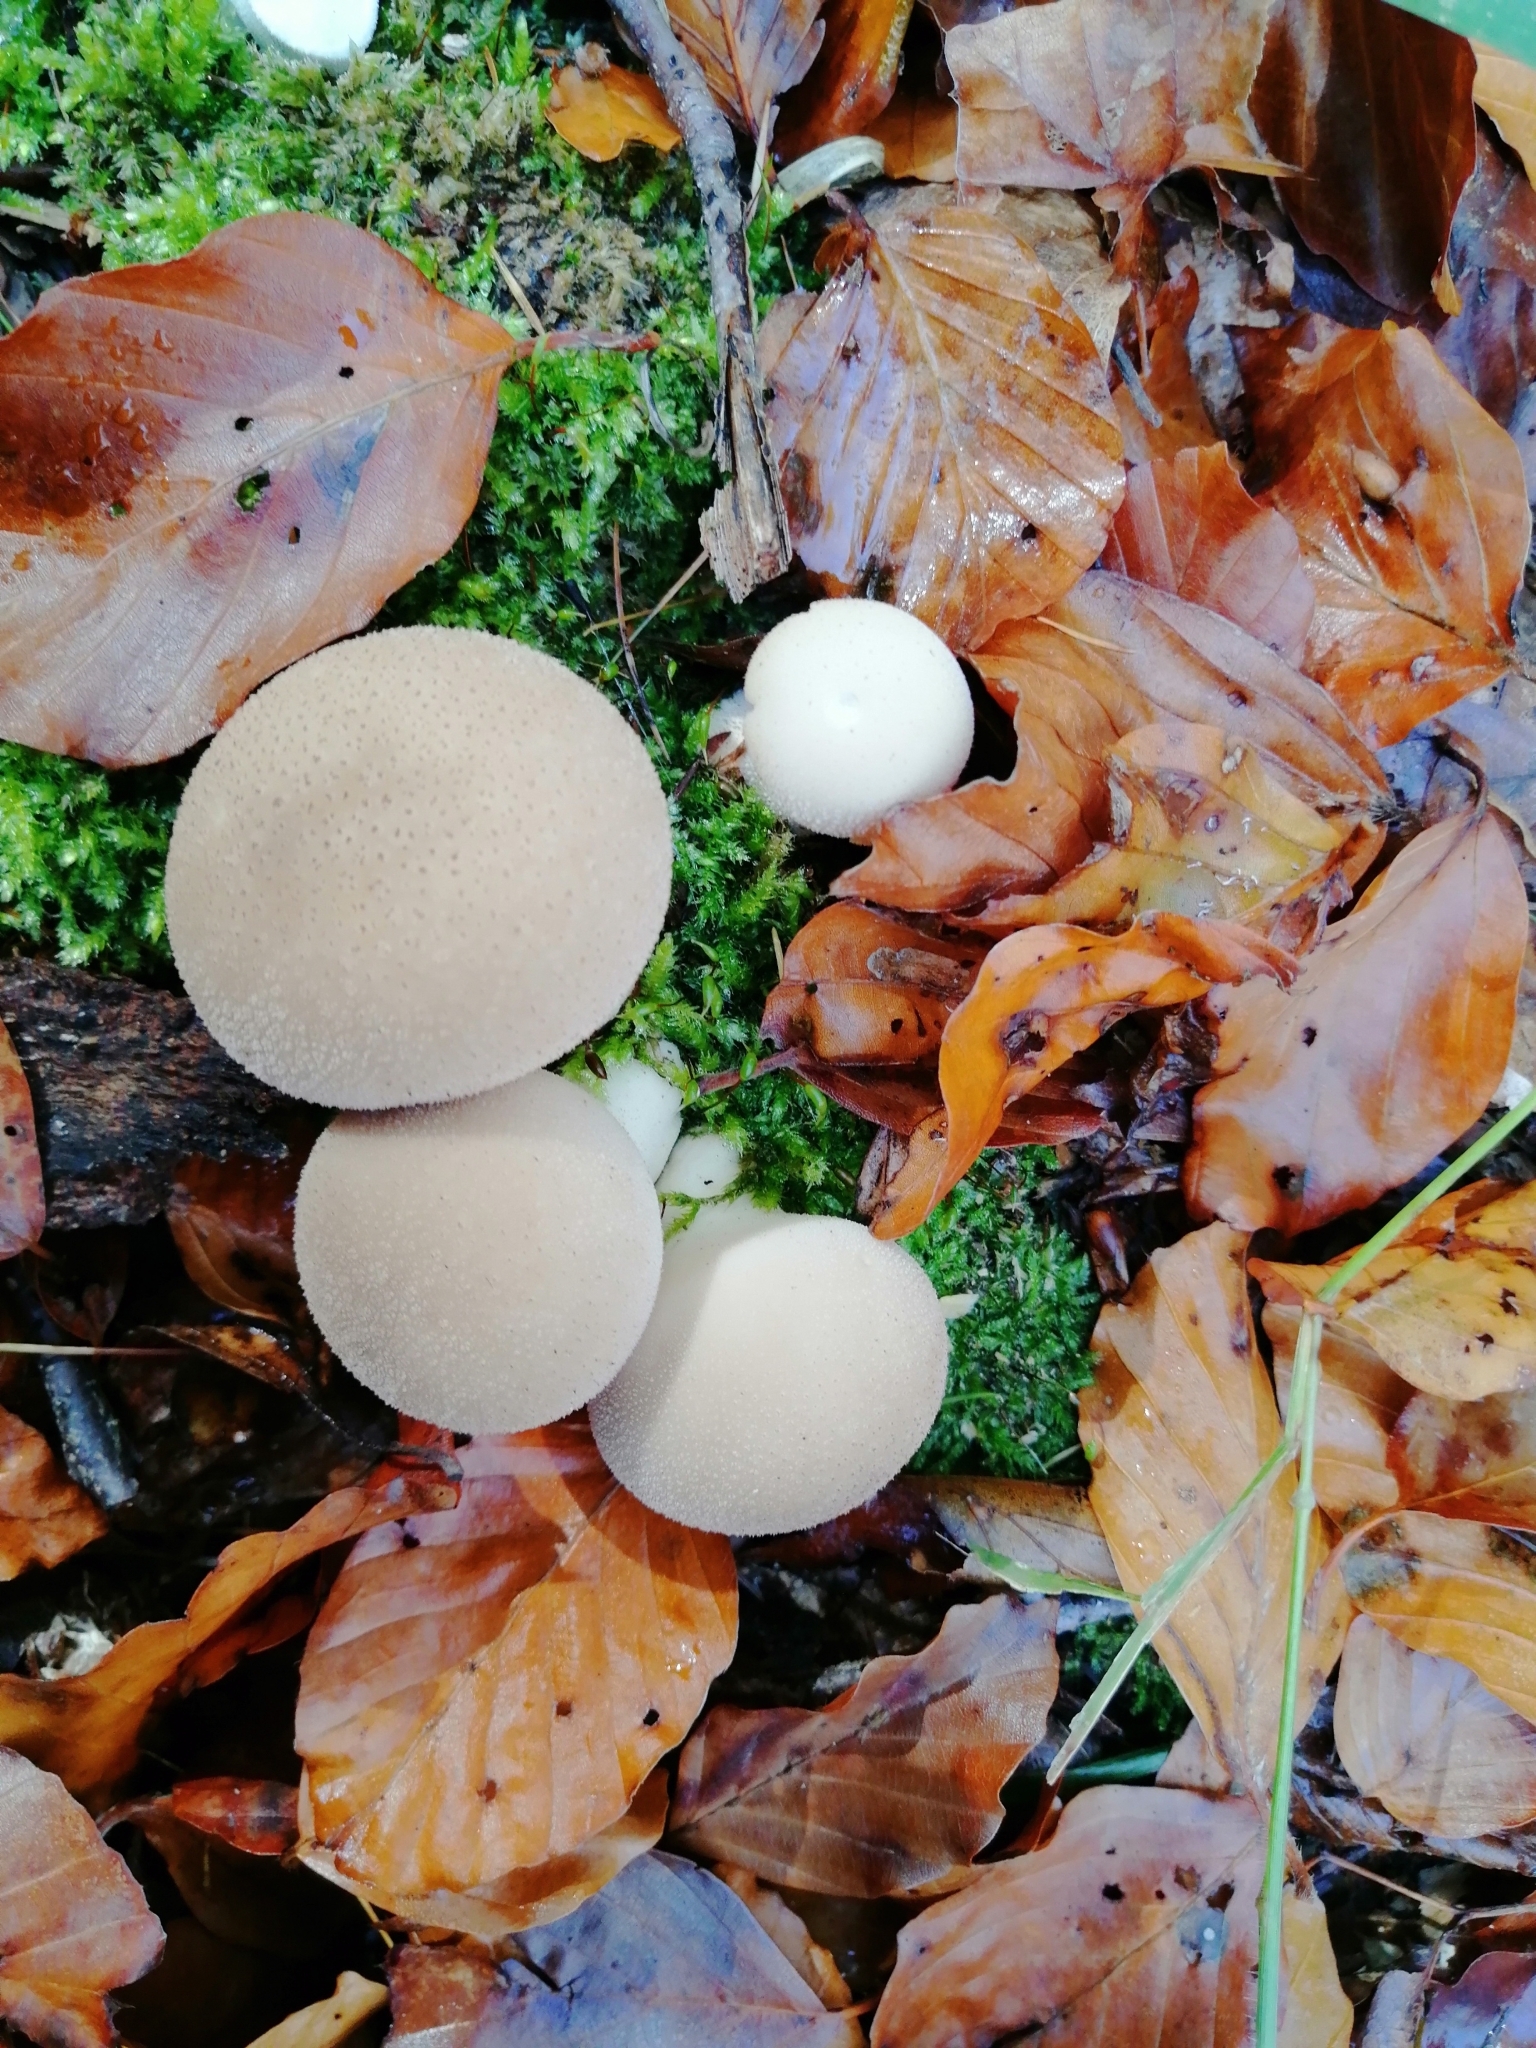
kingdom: Fungi
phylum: Basidiomycota
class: Agaricomycetes
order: Agaricales
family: Lycoperdaceae
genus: Apioperdon
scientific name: Apioperdon pyriforme
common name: Pear-shaped puffball
